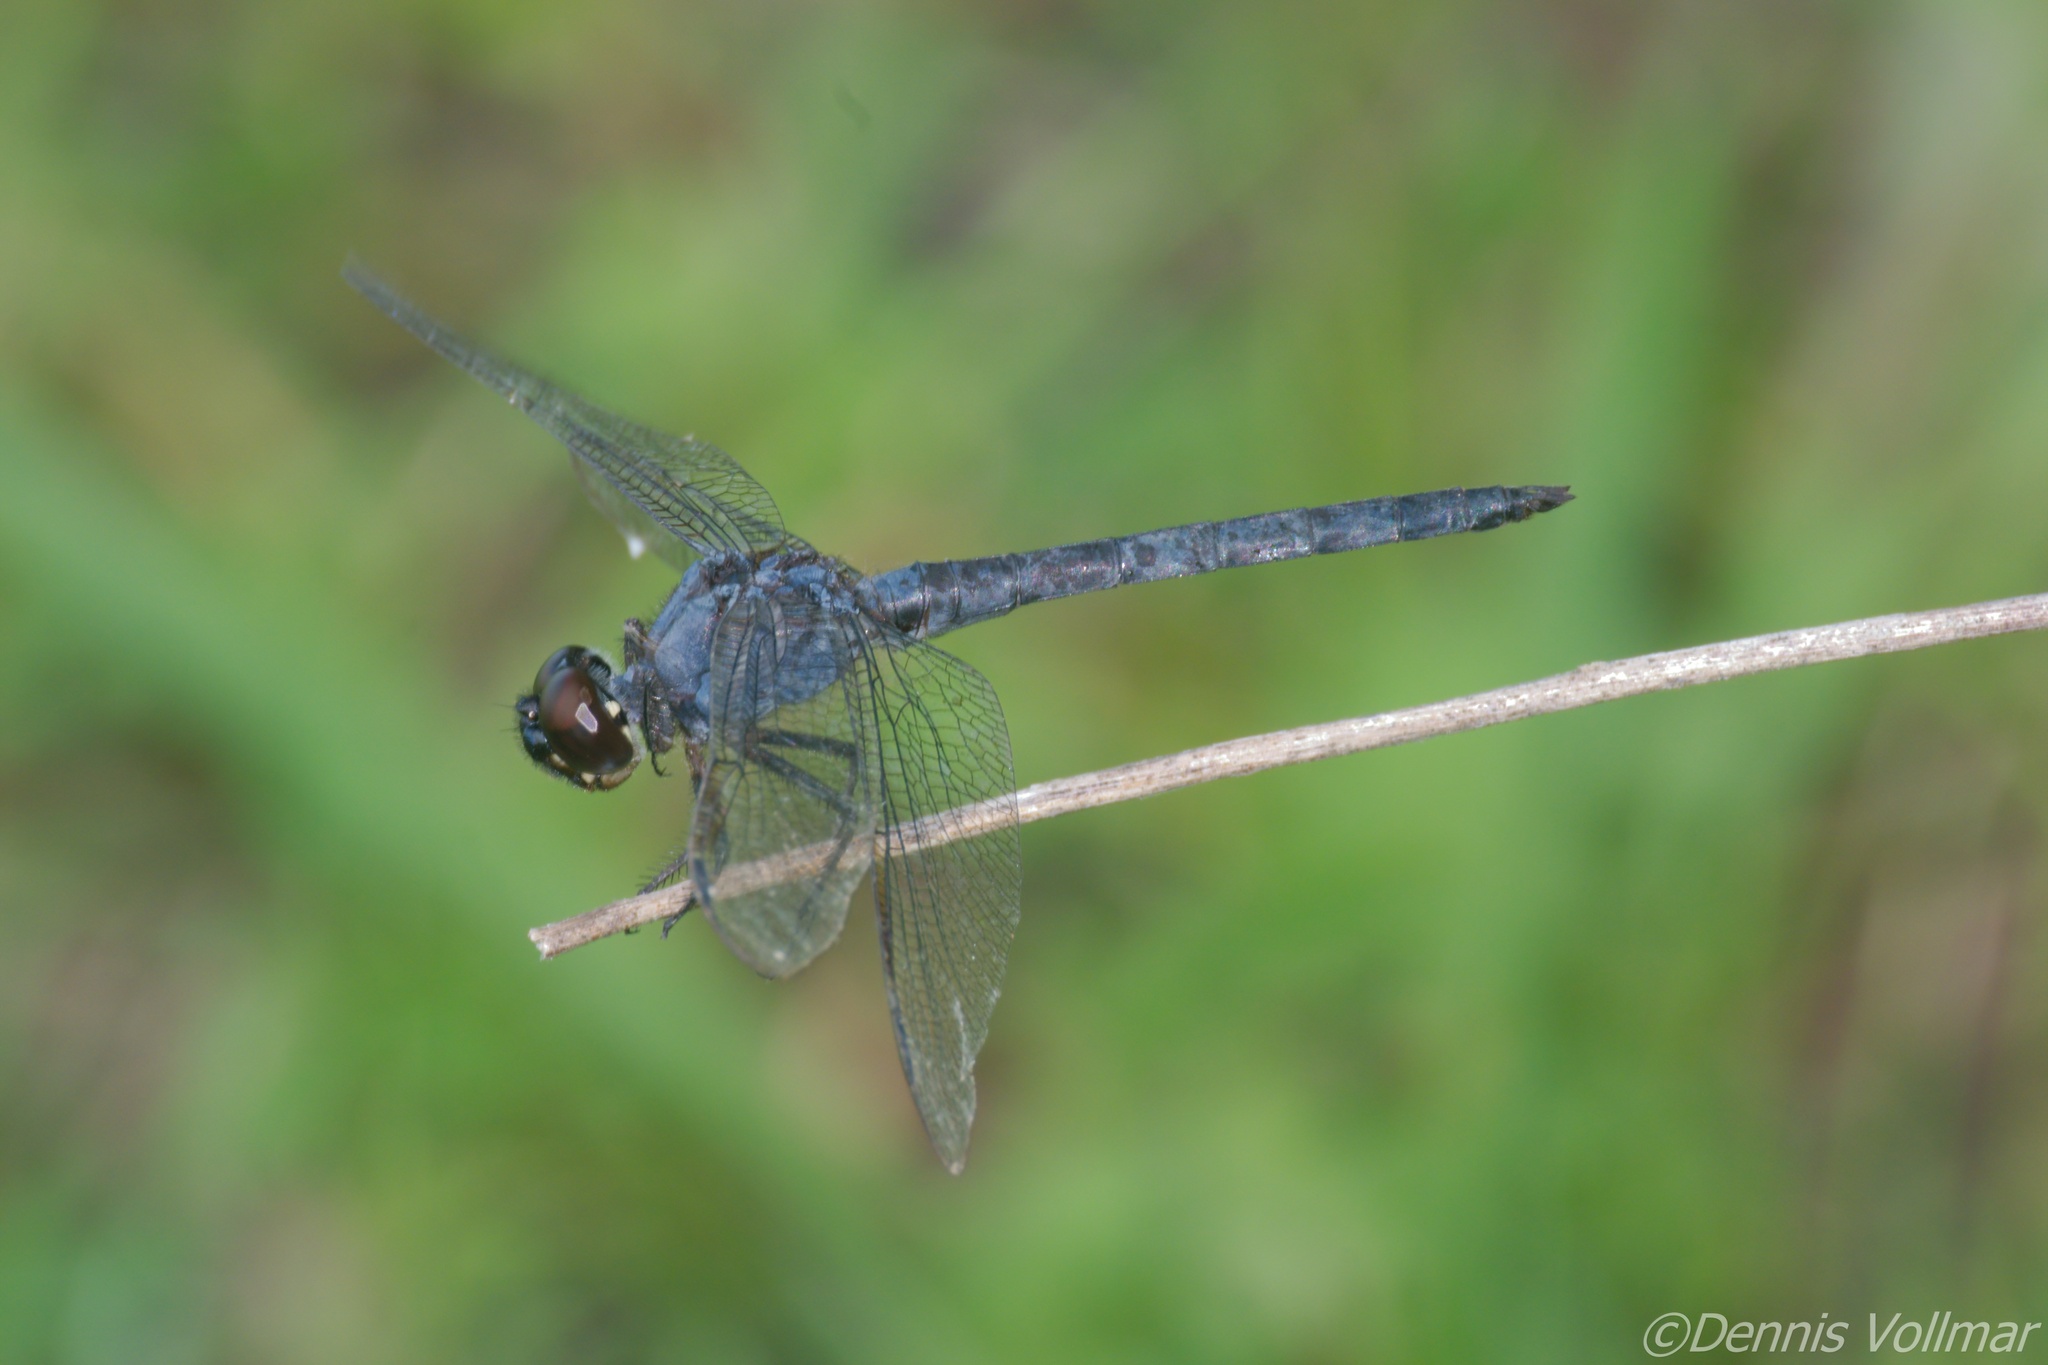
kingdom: Animalia
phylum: Arthropoda
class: Insecta
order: Odonata
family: Libellulidae
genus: Libellula
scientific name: Libellula incesta
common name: Slaty skimmer
